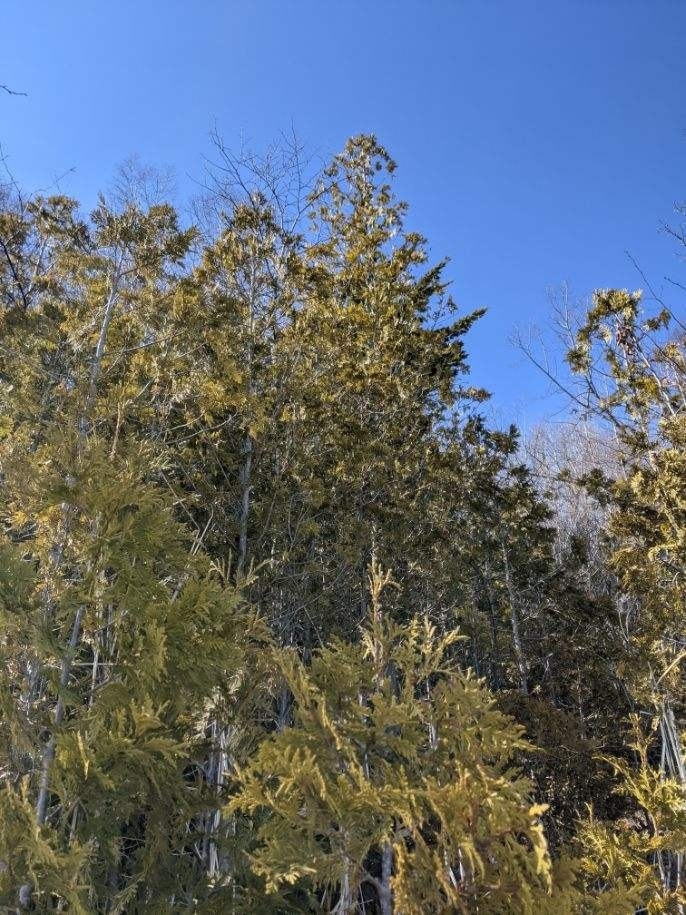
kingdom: Plantae
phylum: Tracheophyta
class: Pinopsida
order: Pinales
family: Cupressaceae
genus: Thuja
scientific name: Thuja occidentalis
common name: Northern white-cedar
